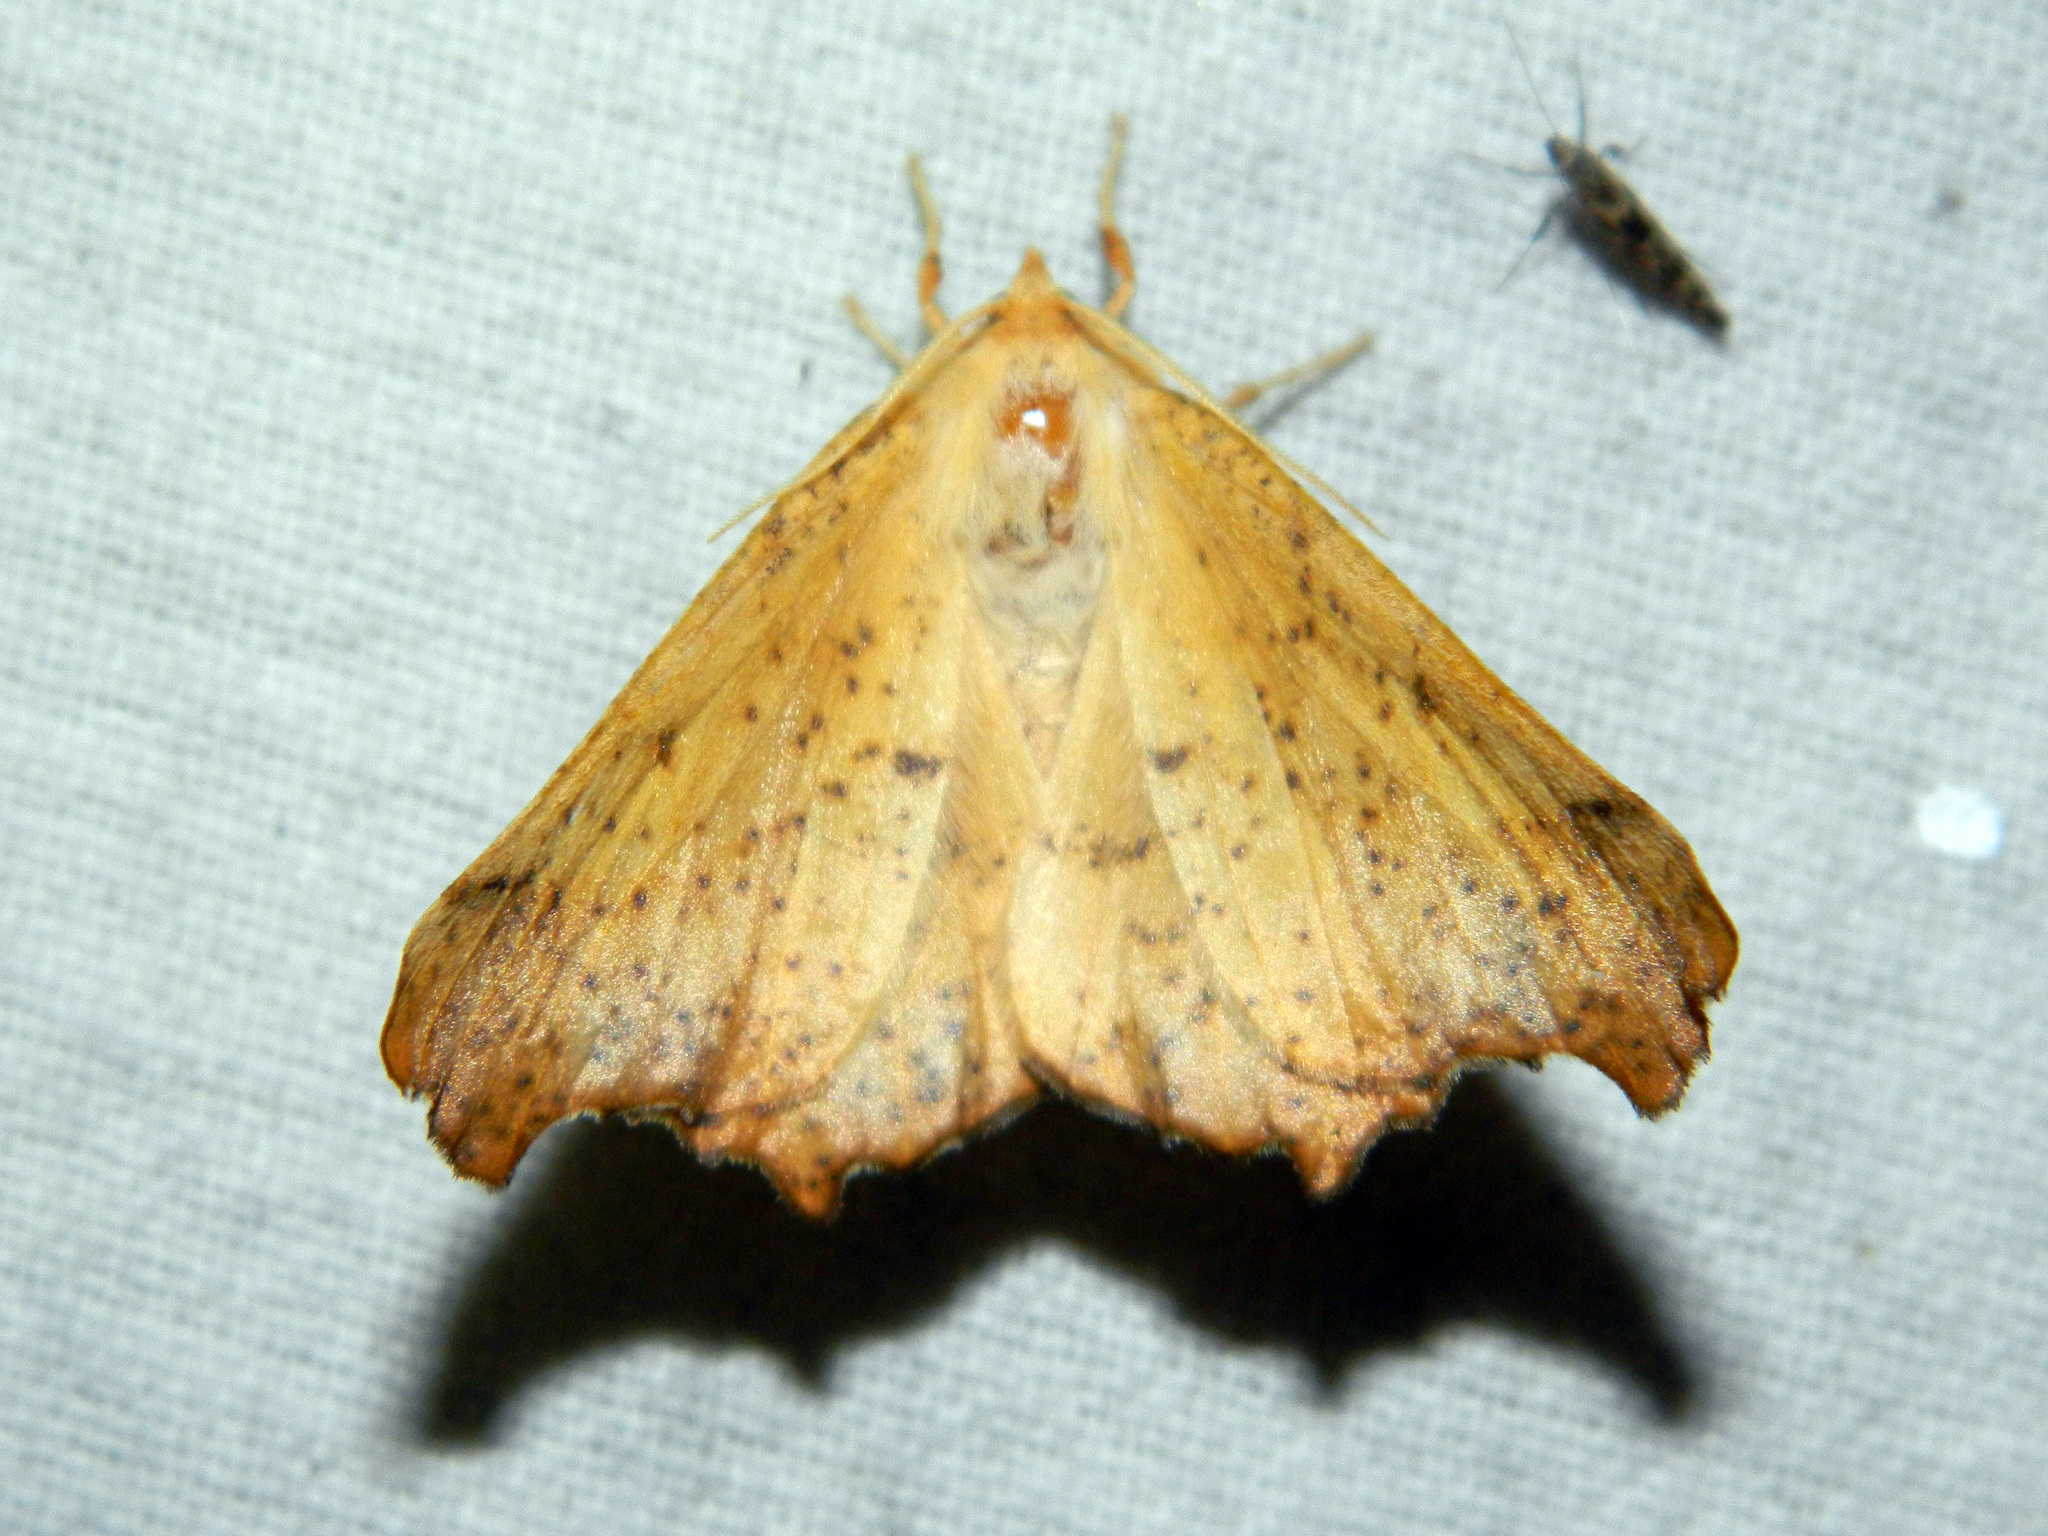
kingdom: Animalia
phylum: Arthropoda
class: Insecta
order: Lepidoptera
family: Geometridae
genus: Ennomos
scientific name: Ennomos magnaria
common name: Maple spanworm
